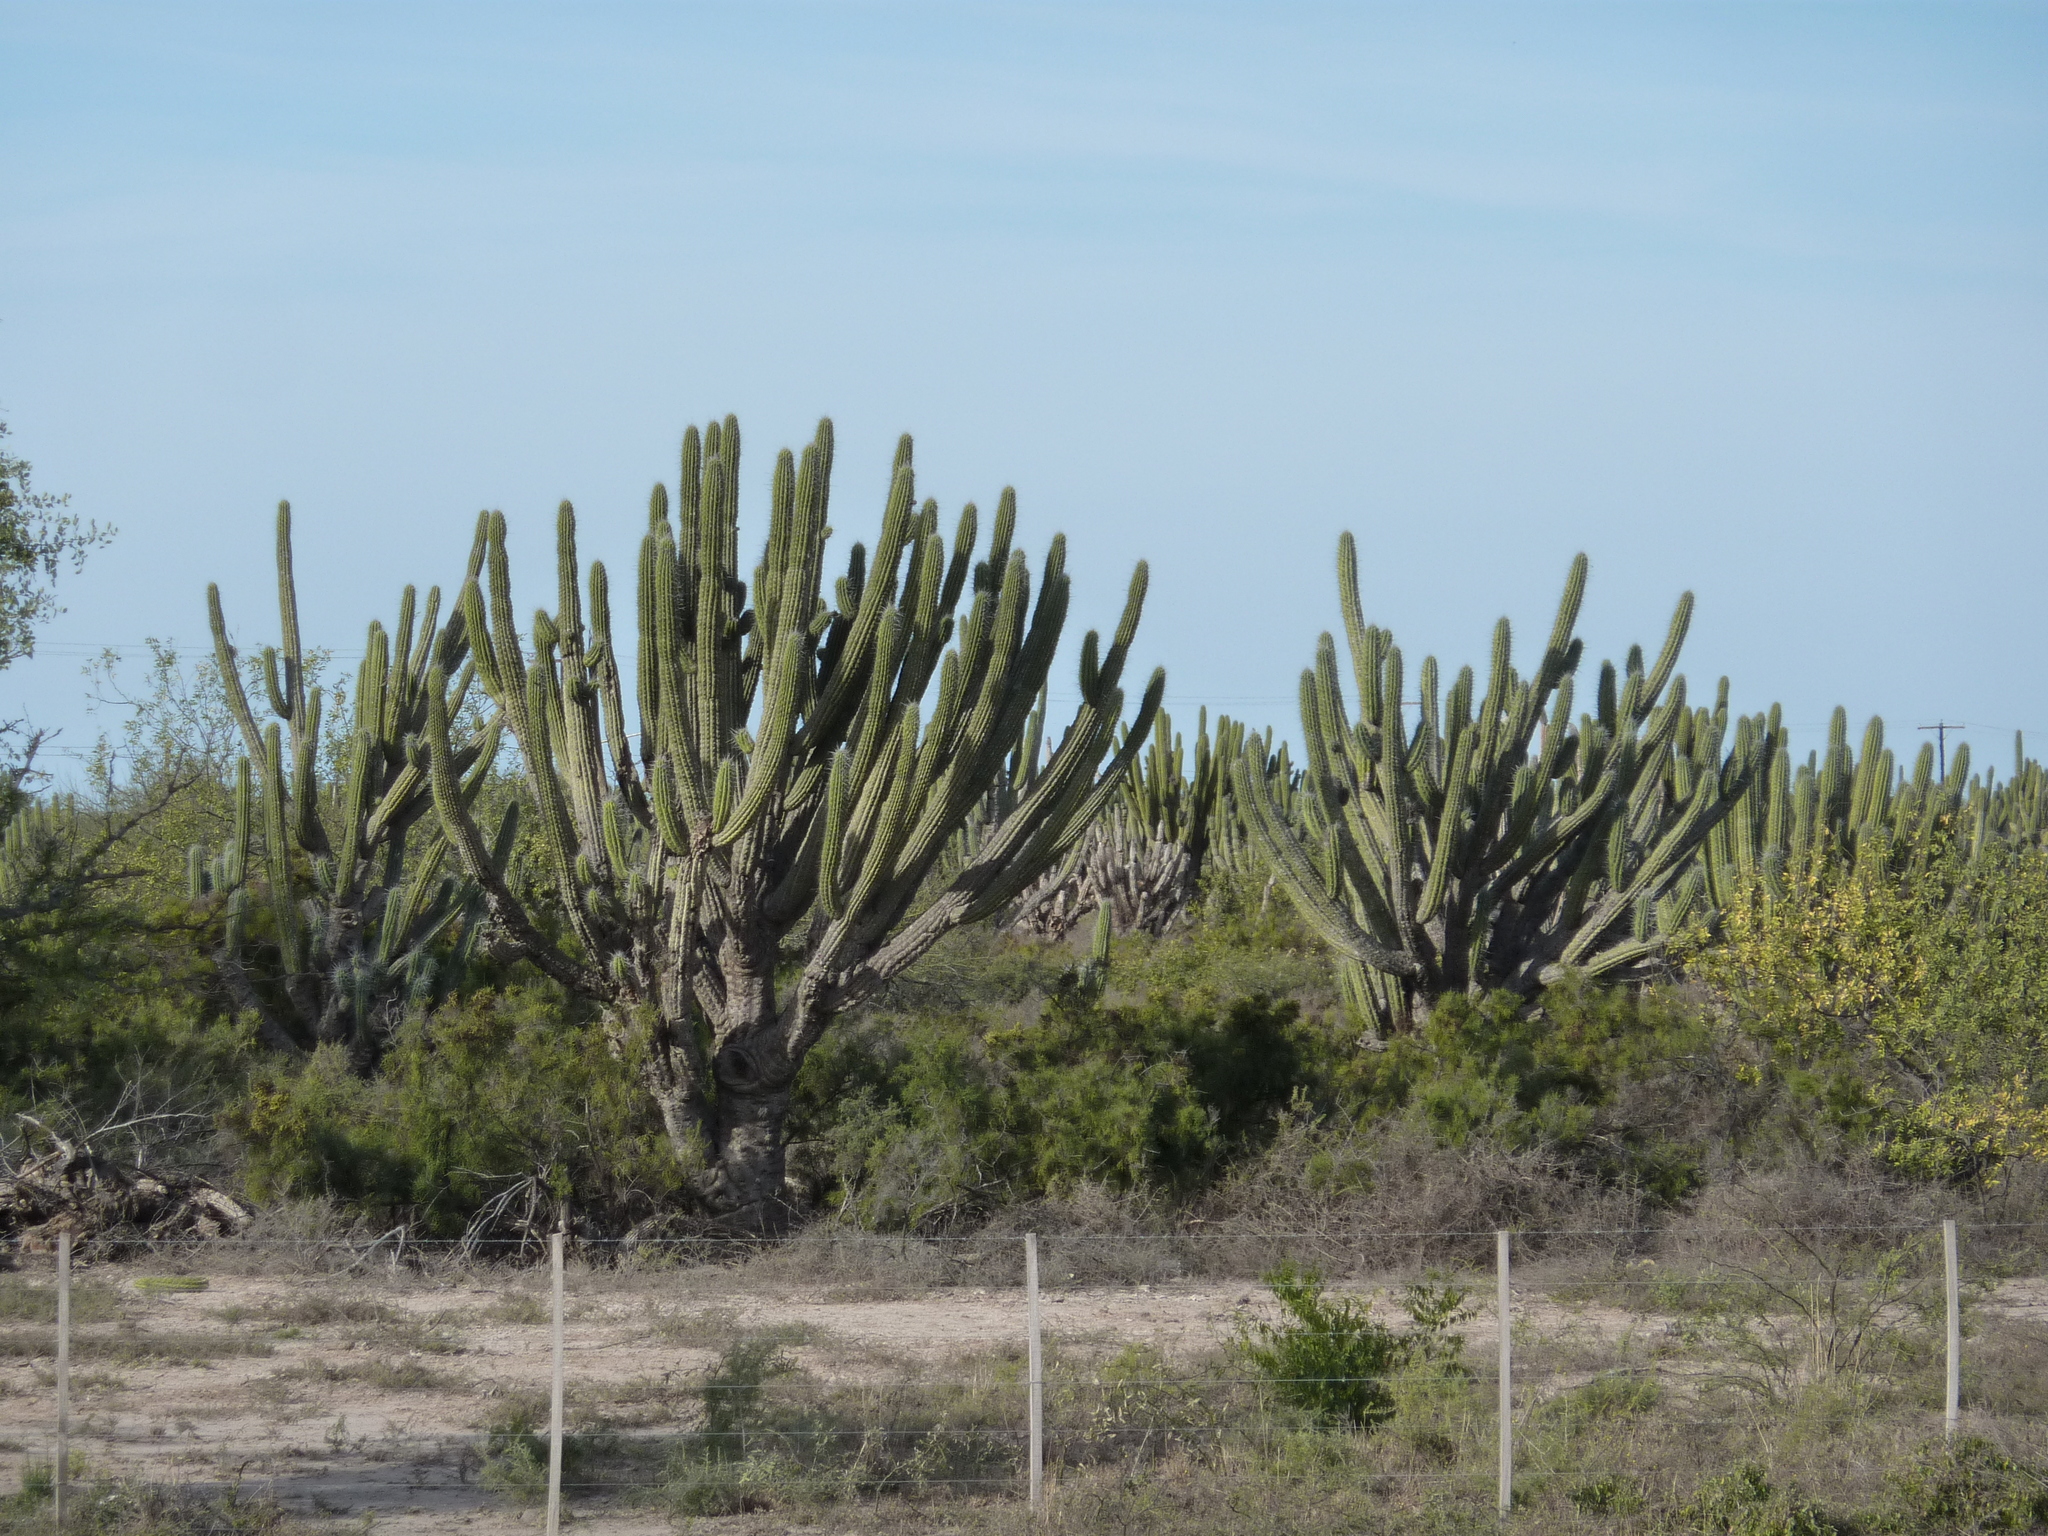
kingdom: Plantae
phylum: Tracheophyta
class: Magnoliopsida
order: Caryophyllales
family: Cactaceae
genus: Stetsonia
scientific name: Stetsonia coryne
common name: Toothpick cactus
